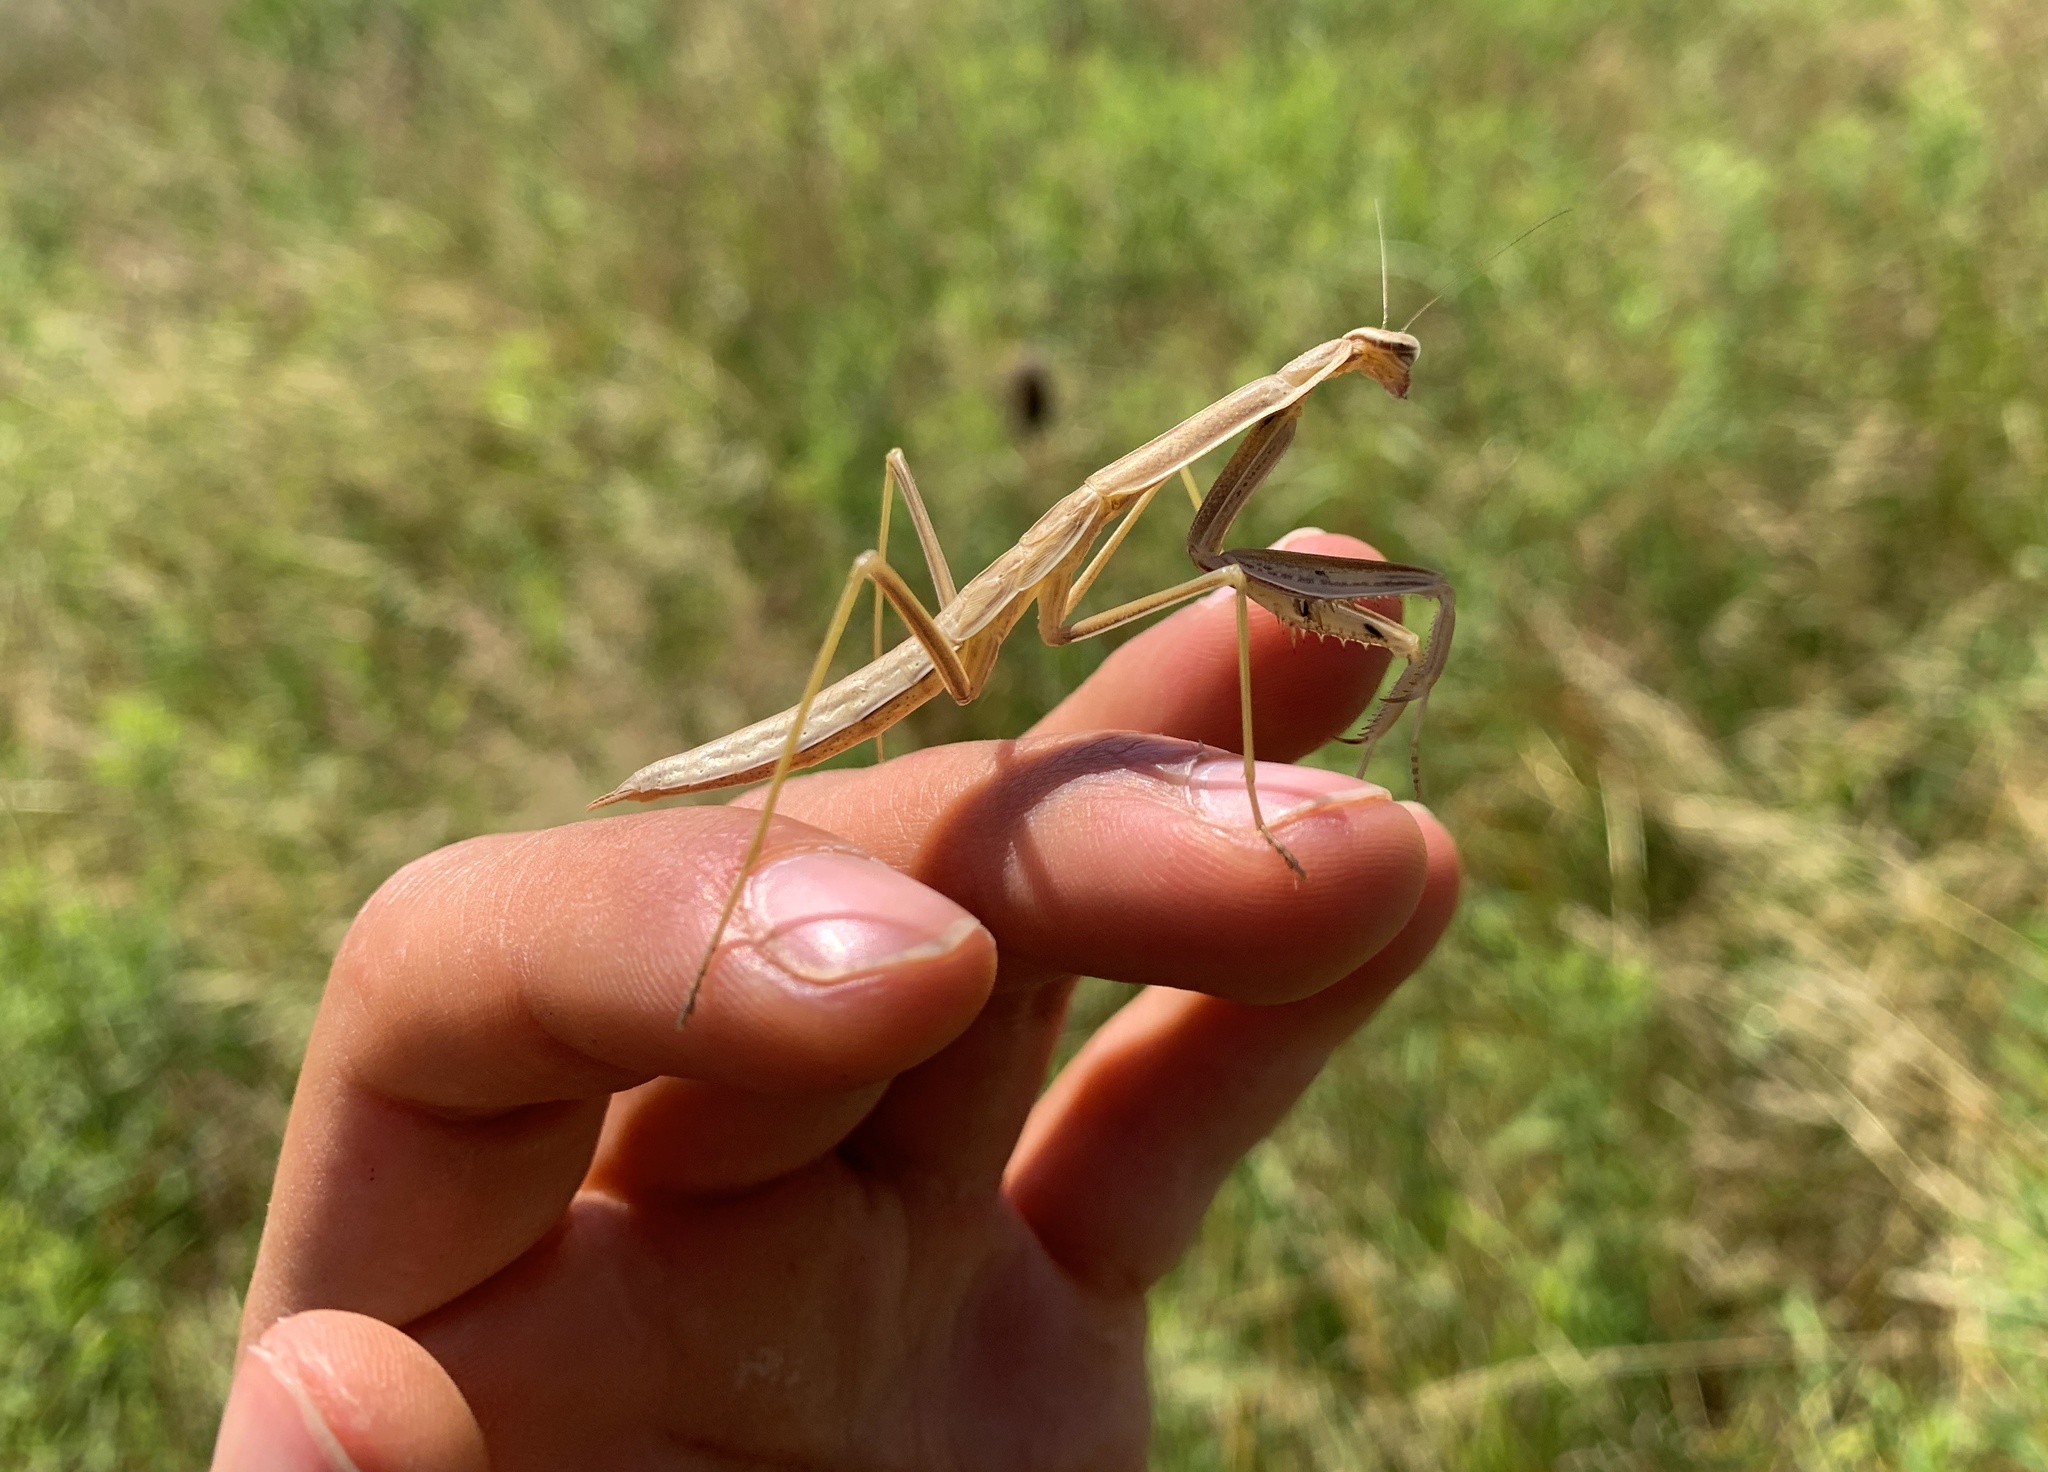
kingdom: Animalia
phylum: Arthropoda
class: Insecta
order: Mantodea
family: Mantidae
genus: Tenodera
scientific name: Tenodera sinensis
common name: Chinese mantis
